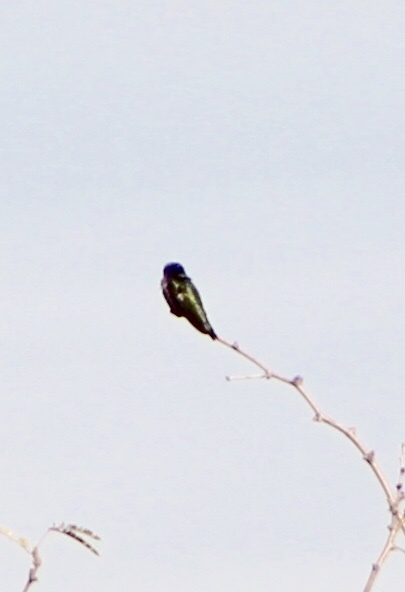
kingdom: Animalia
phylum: Chordata
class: Aves
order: Apodiformes
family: Trochilidae
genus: Calypte
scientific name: Calypte anna
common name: Anna's hummingbird
